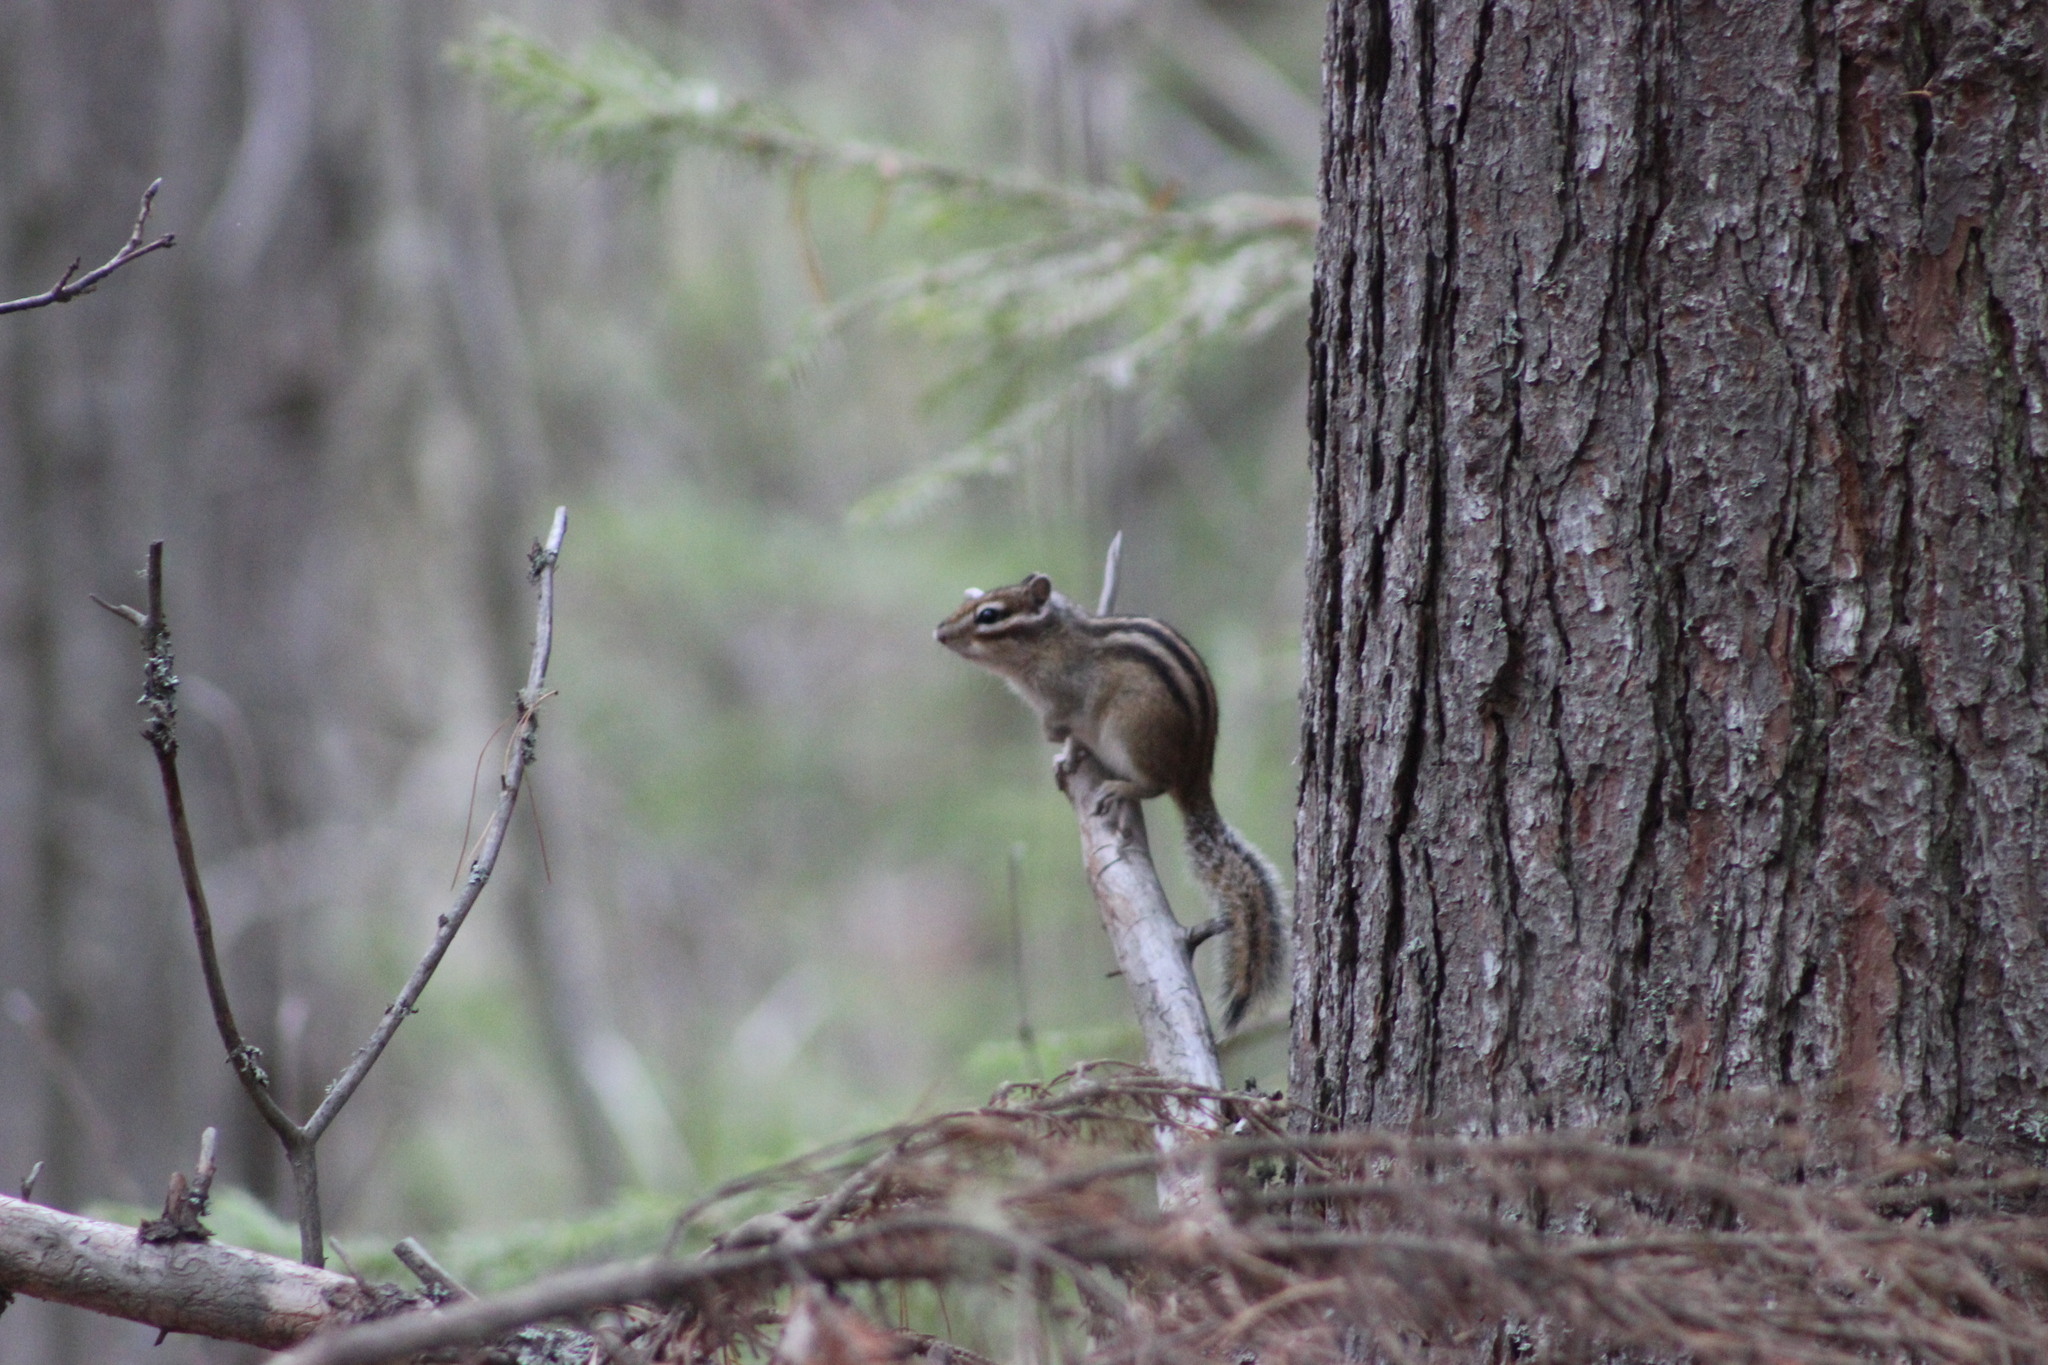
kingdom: Animalia
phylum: Chordata
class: Mammalia
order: Rodentia
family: Sciuridae
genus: Tamias
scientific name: Tamias sibiricus
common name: Siberian chipmunk
